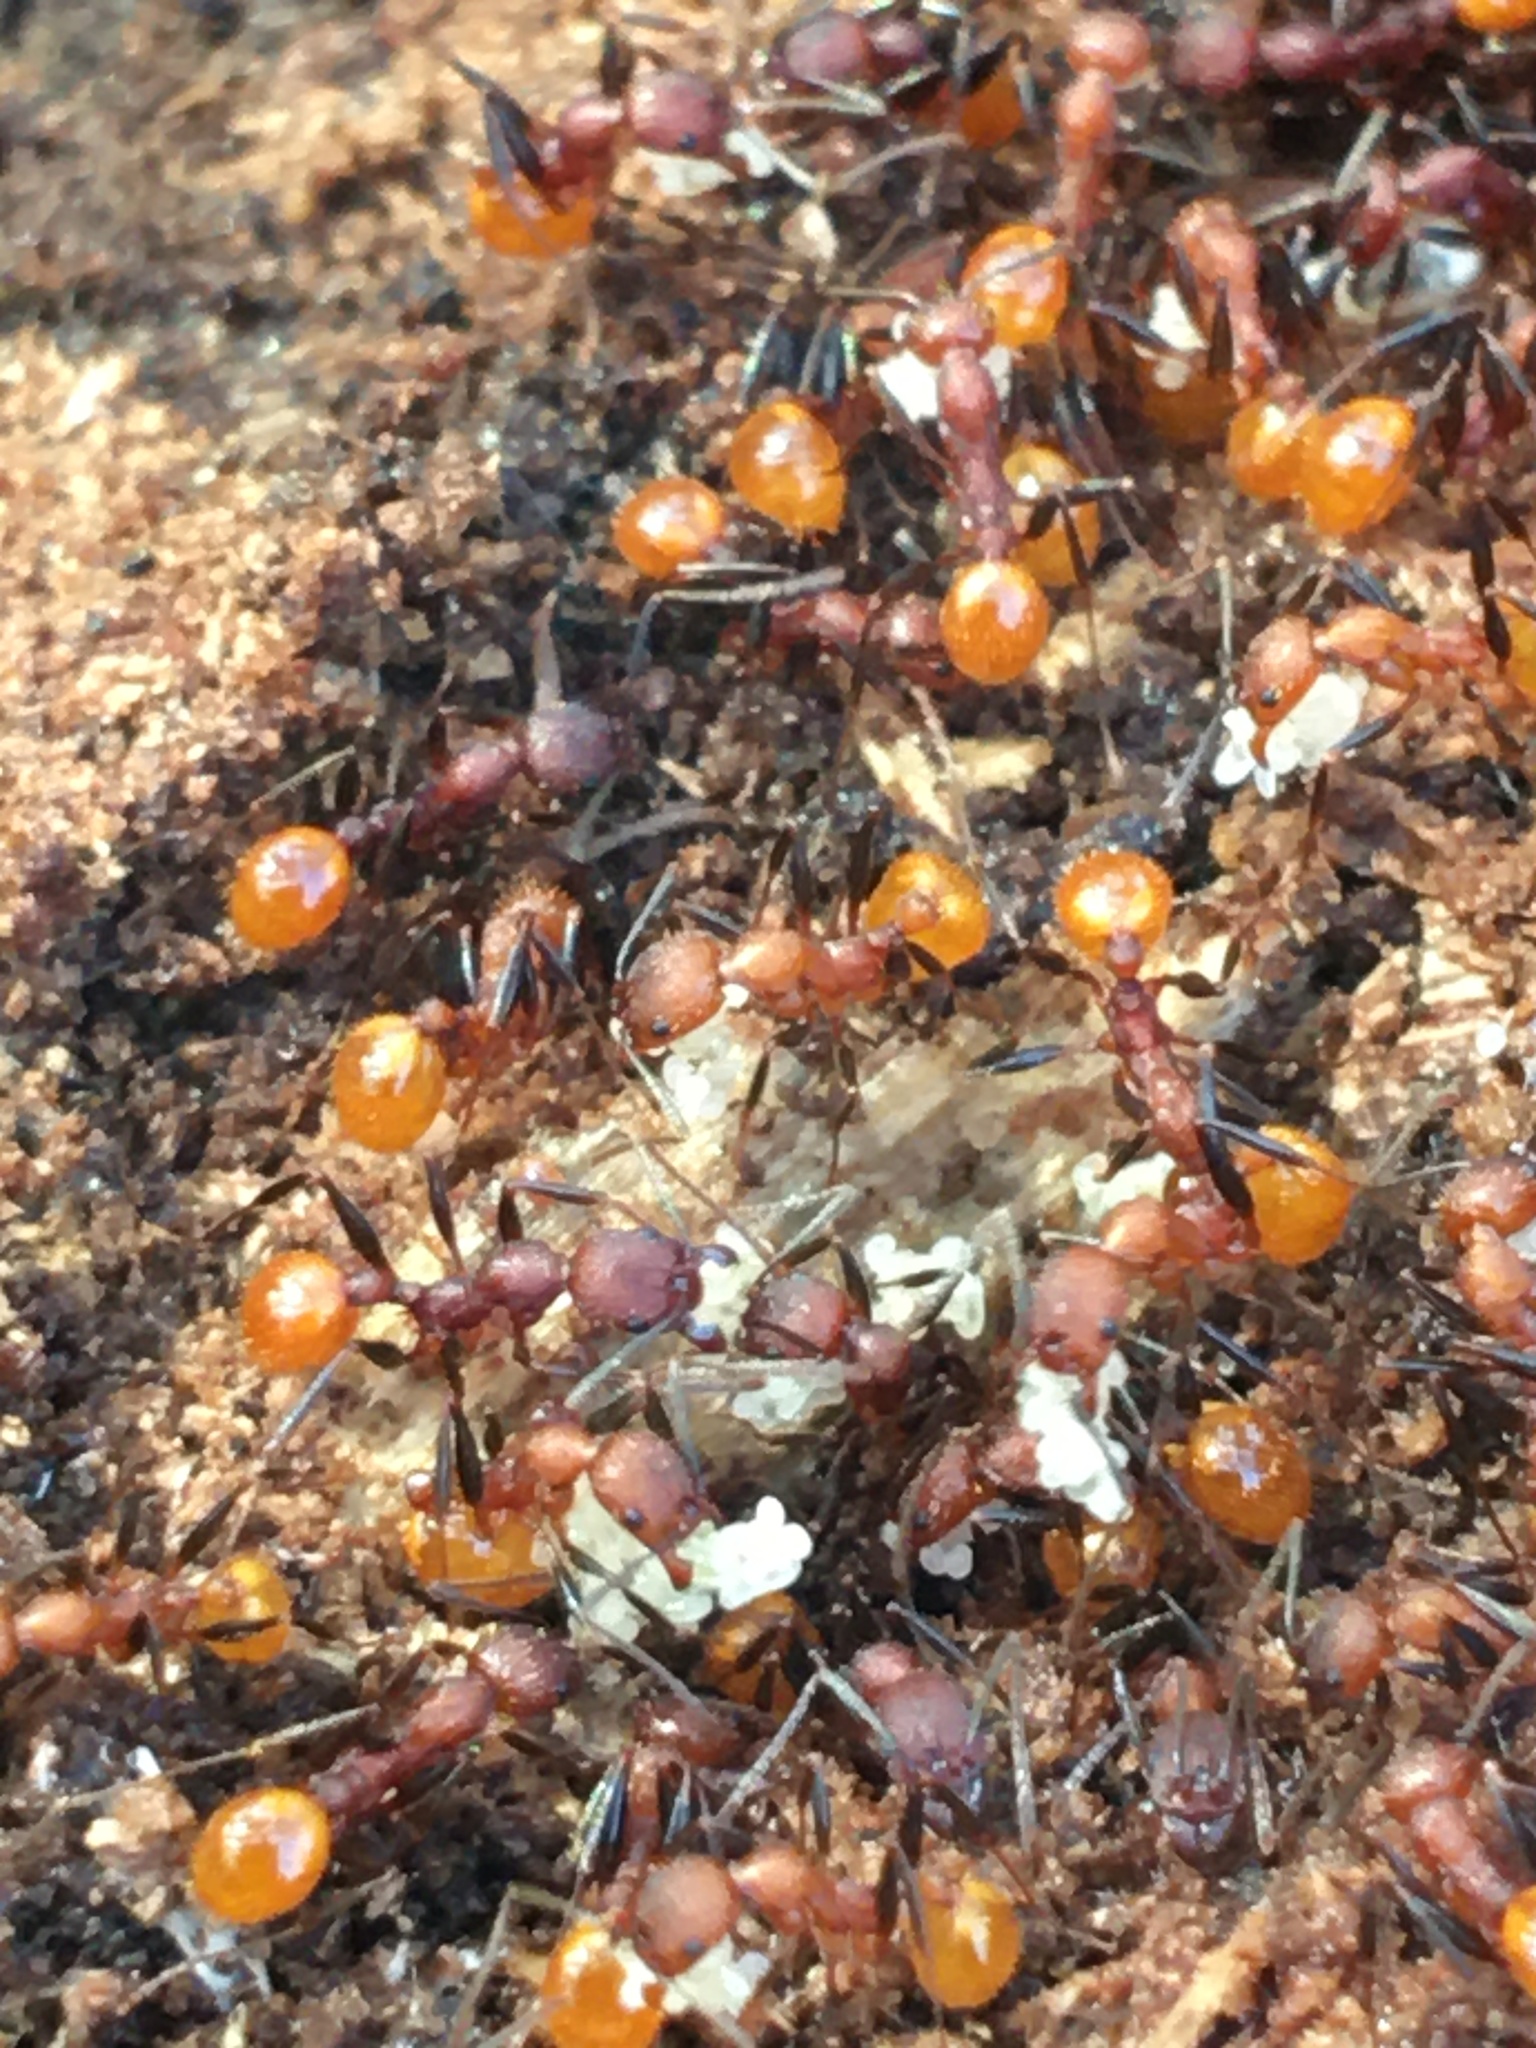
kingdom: Animalia
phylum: Arthropoda
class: Insecta
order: Hymenoptera
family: Formicidae
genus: Aphaenogaster
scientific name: Aphaenogaster lamellidens
